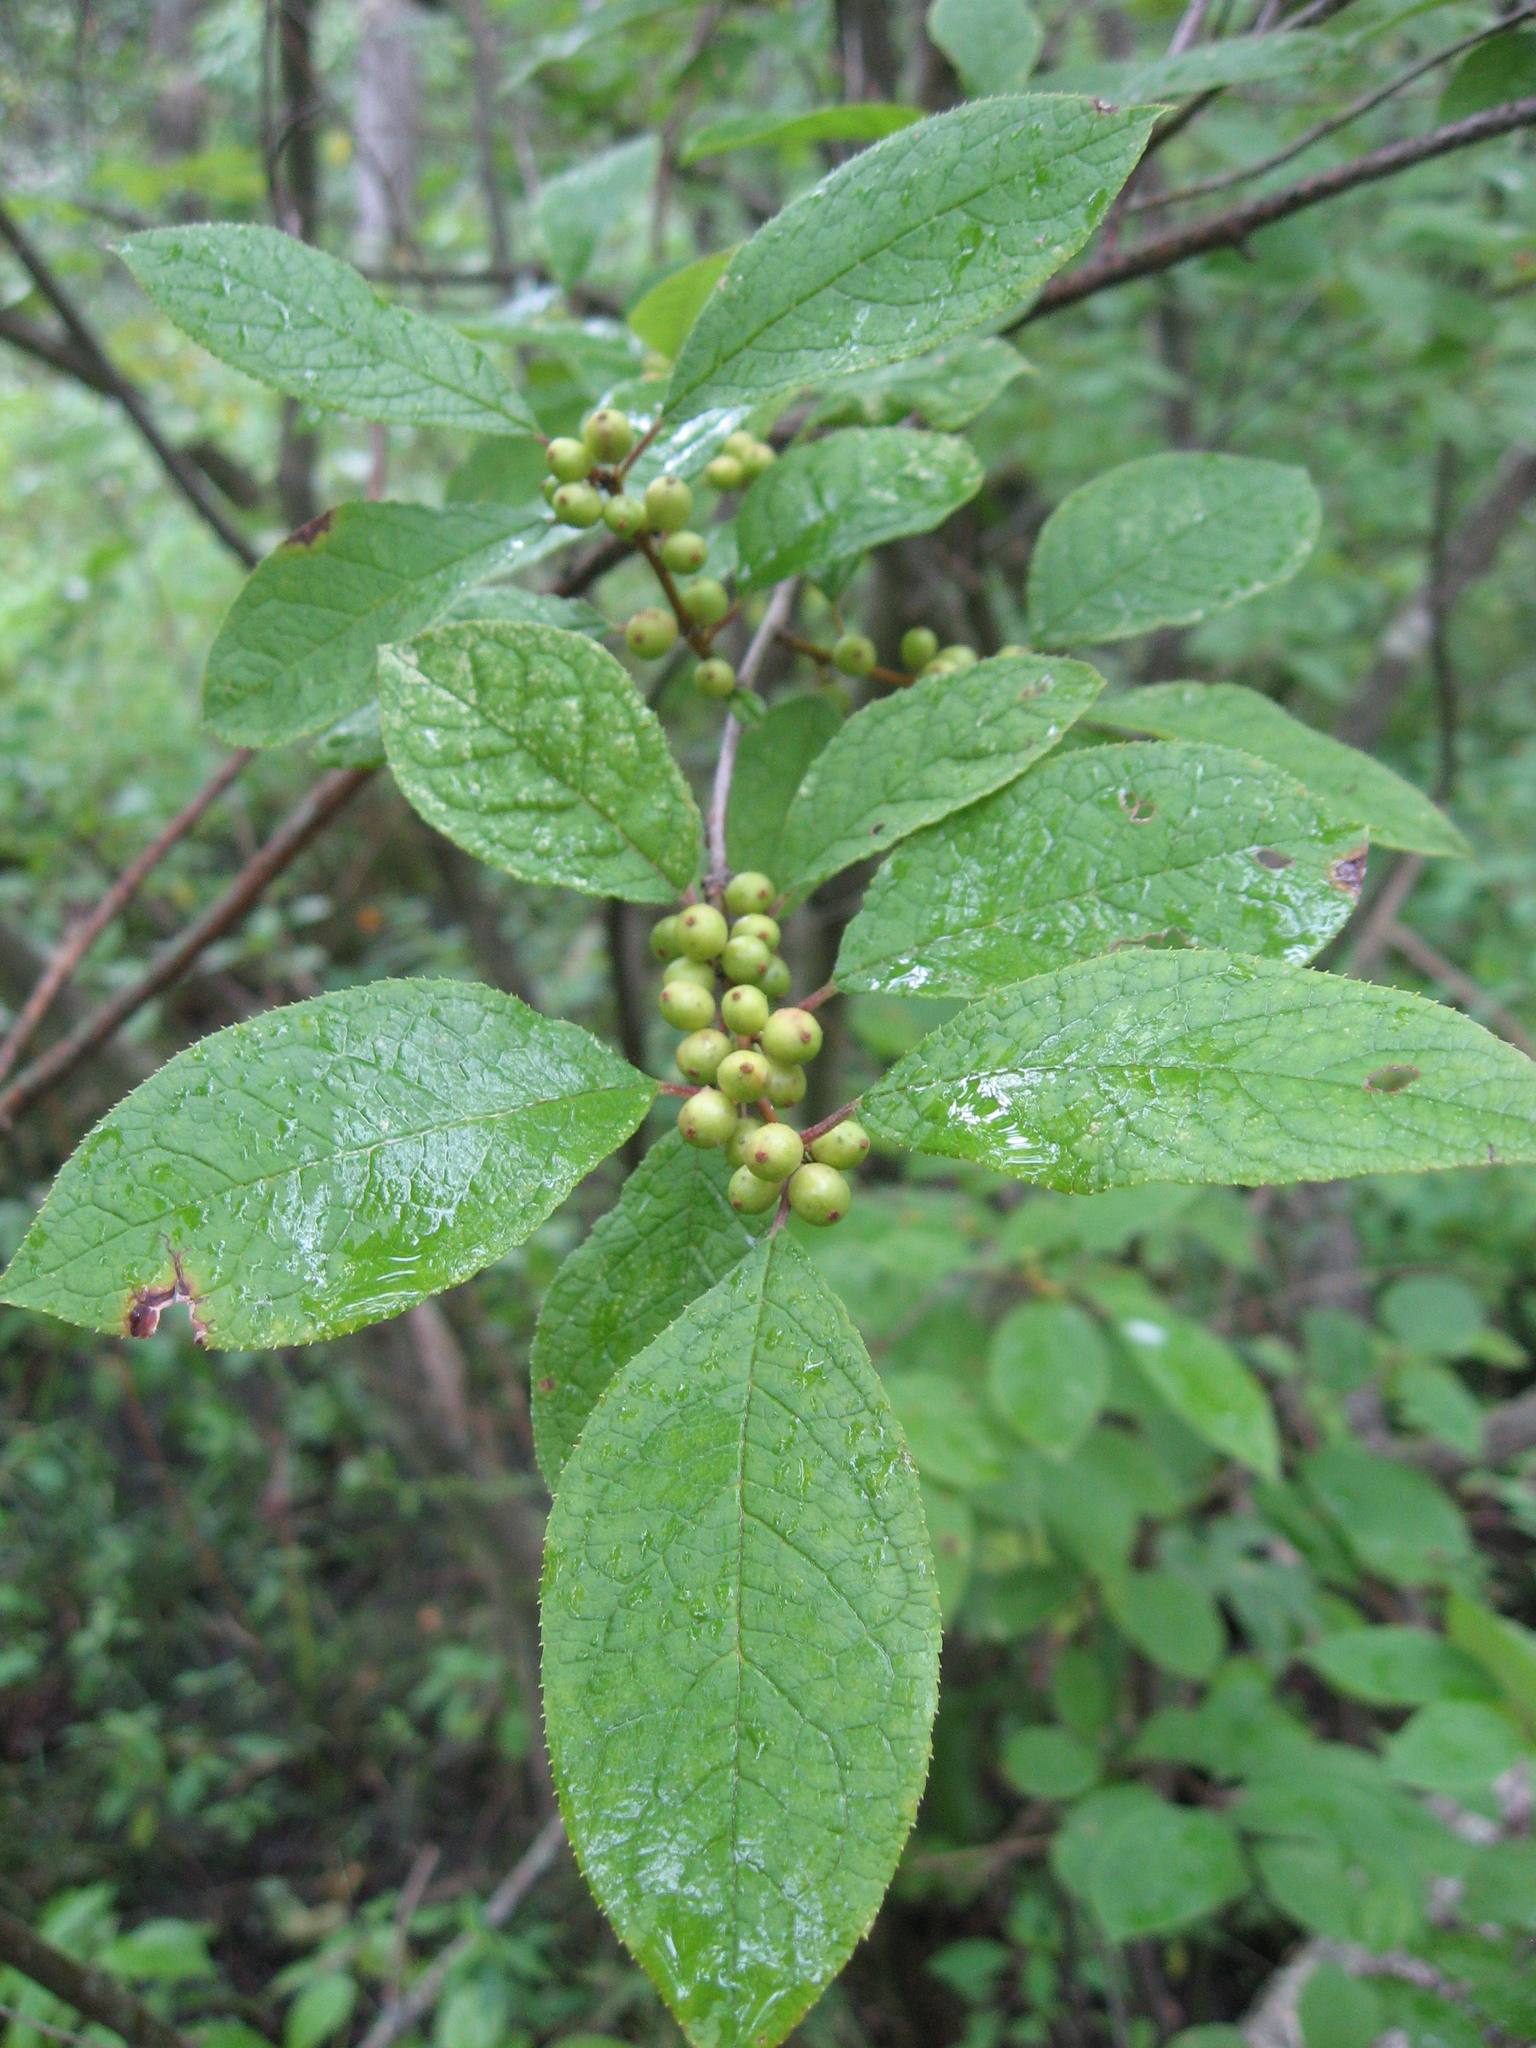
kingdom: Plantae
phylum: Tracheophyta
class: Magnoliopsida
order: Aquifoliales
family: Aquifoliaceae
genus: Ilex
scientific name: Ilex verticillata
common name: Virginia winterberry
